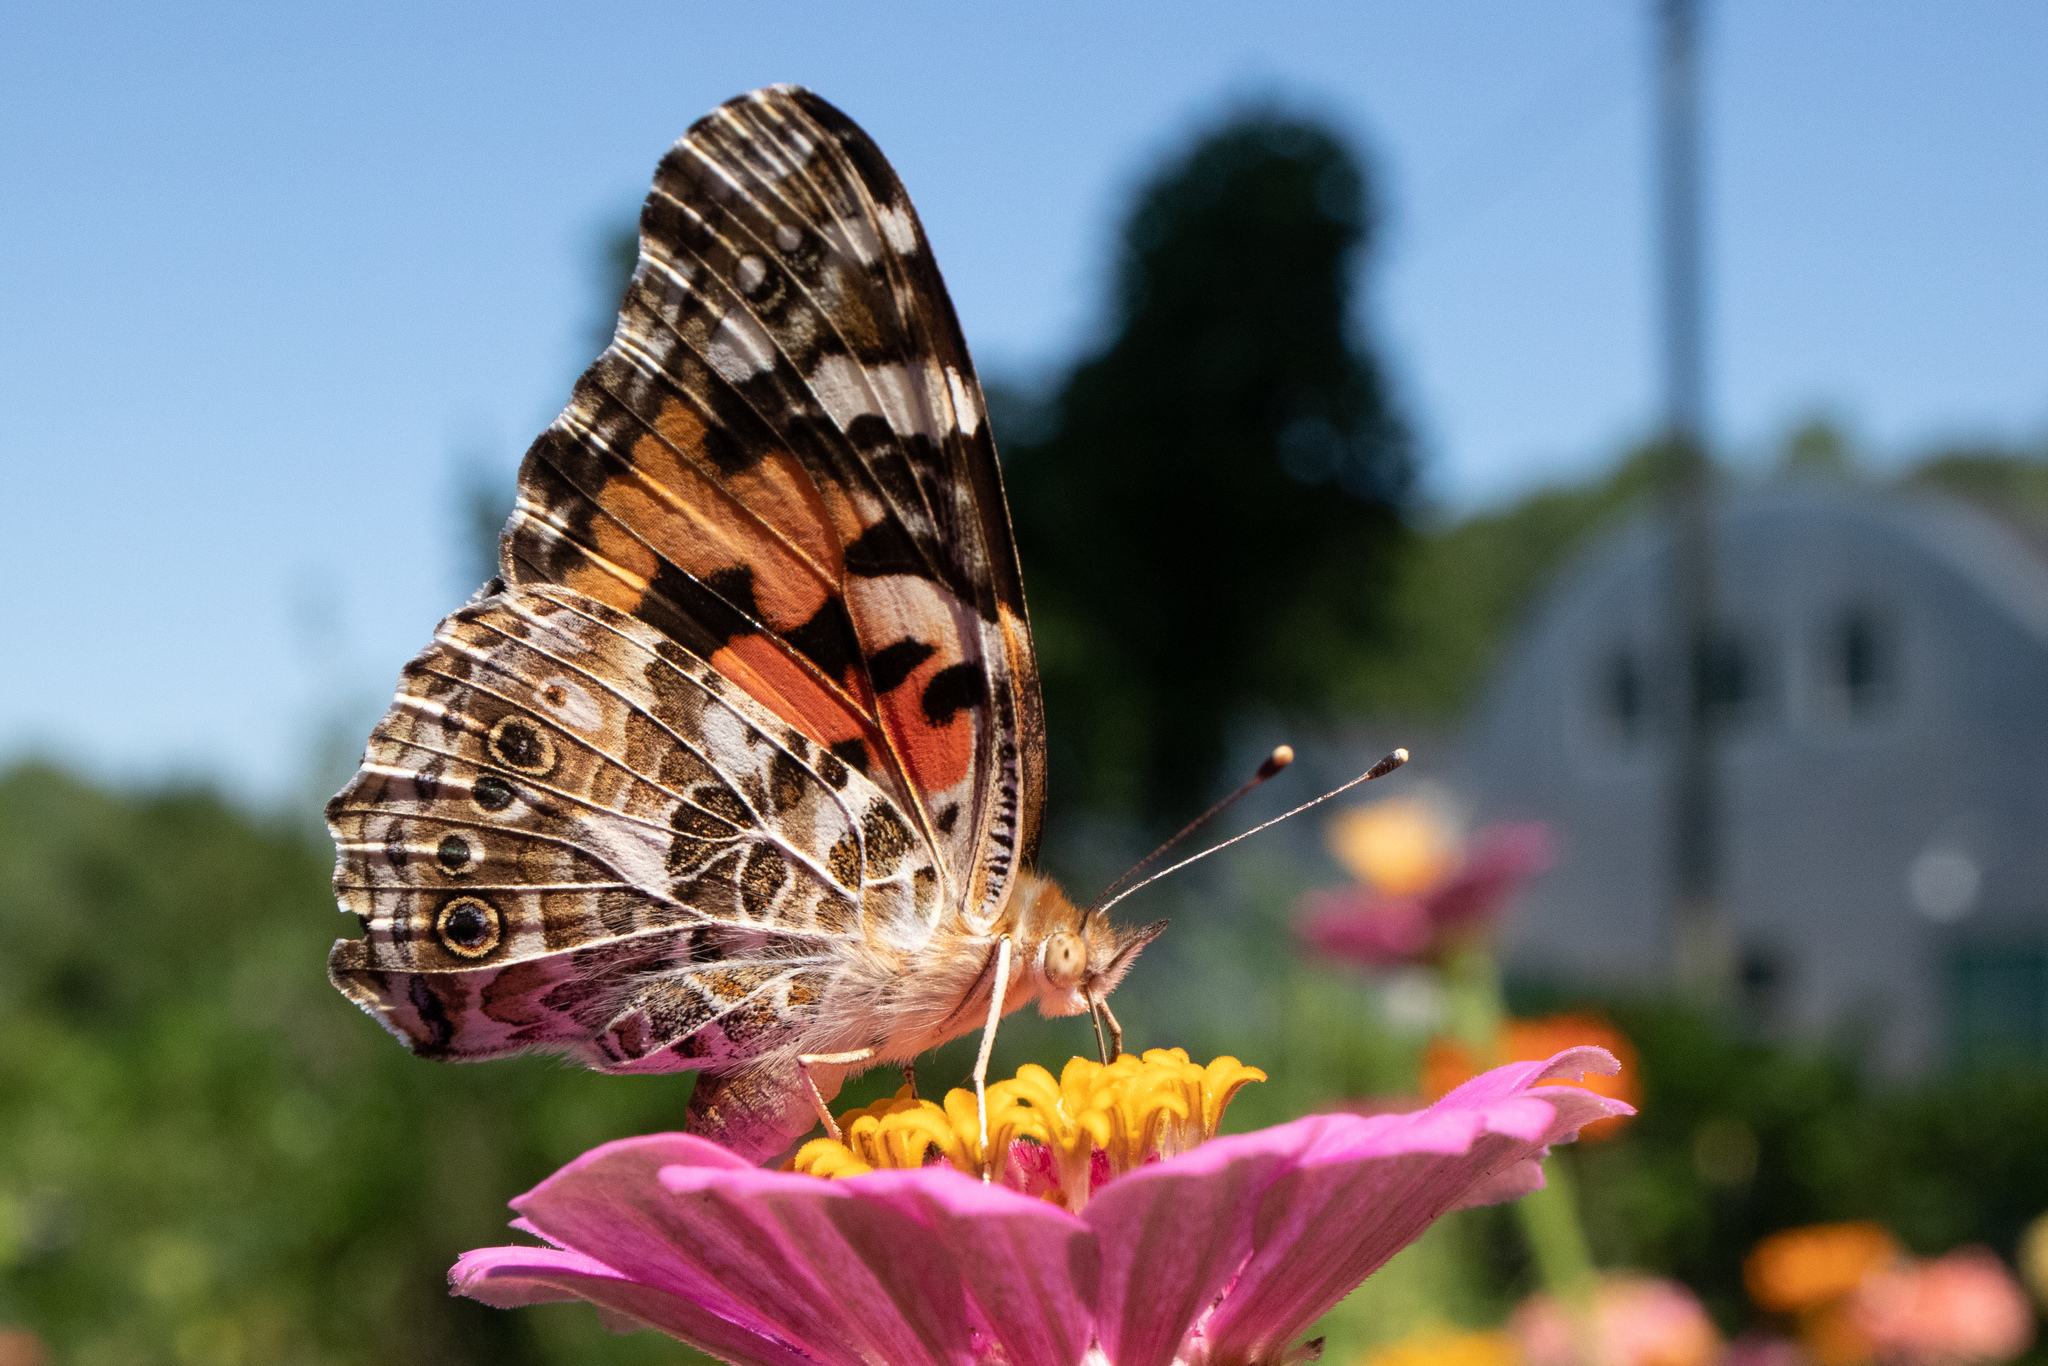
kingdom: Animalia
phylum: Arthropoda
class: Insecta
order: Lepidoptera
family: Nymphalidae
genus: Vanessa
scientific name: Vanessa cardui
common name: Painted lady
